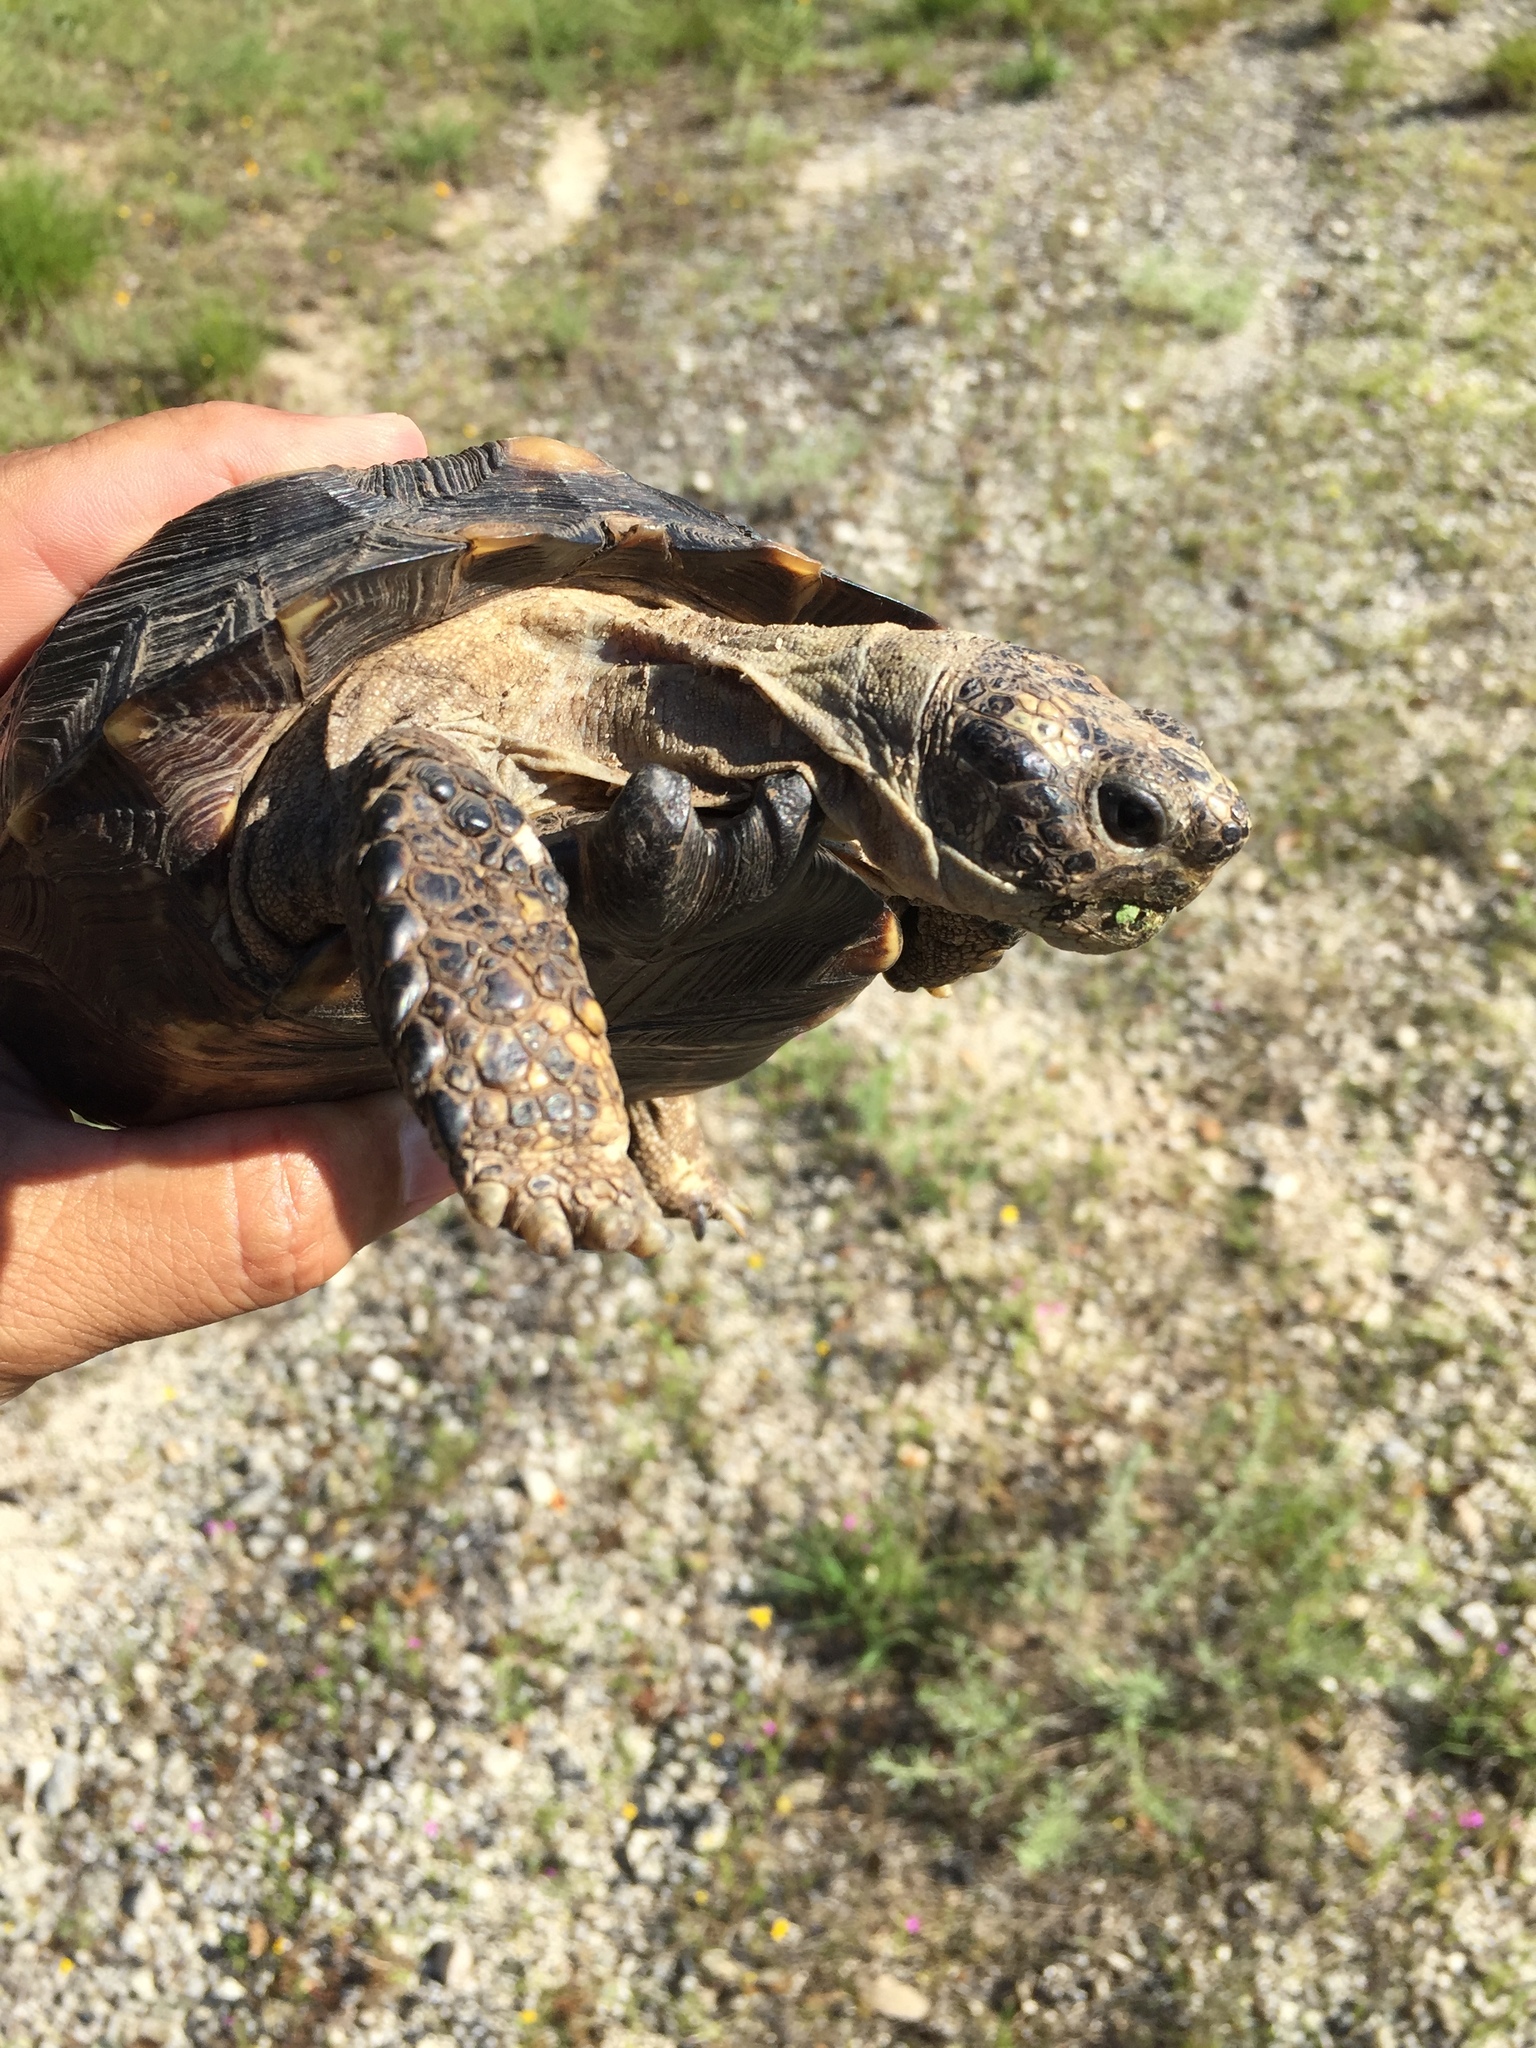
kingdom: Animalia
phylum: Chordata
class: Testudines
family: Testudinidae
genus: Gopherus
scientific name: Gopherus berlandieri
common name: Texas (gopher )tortoise
